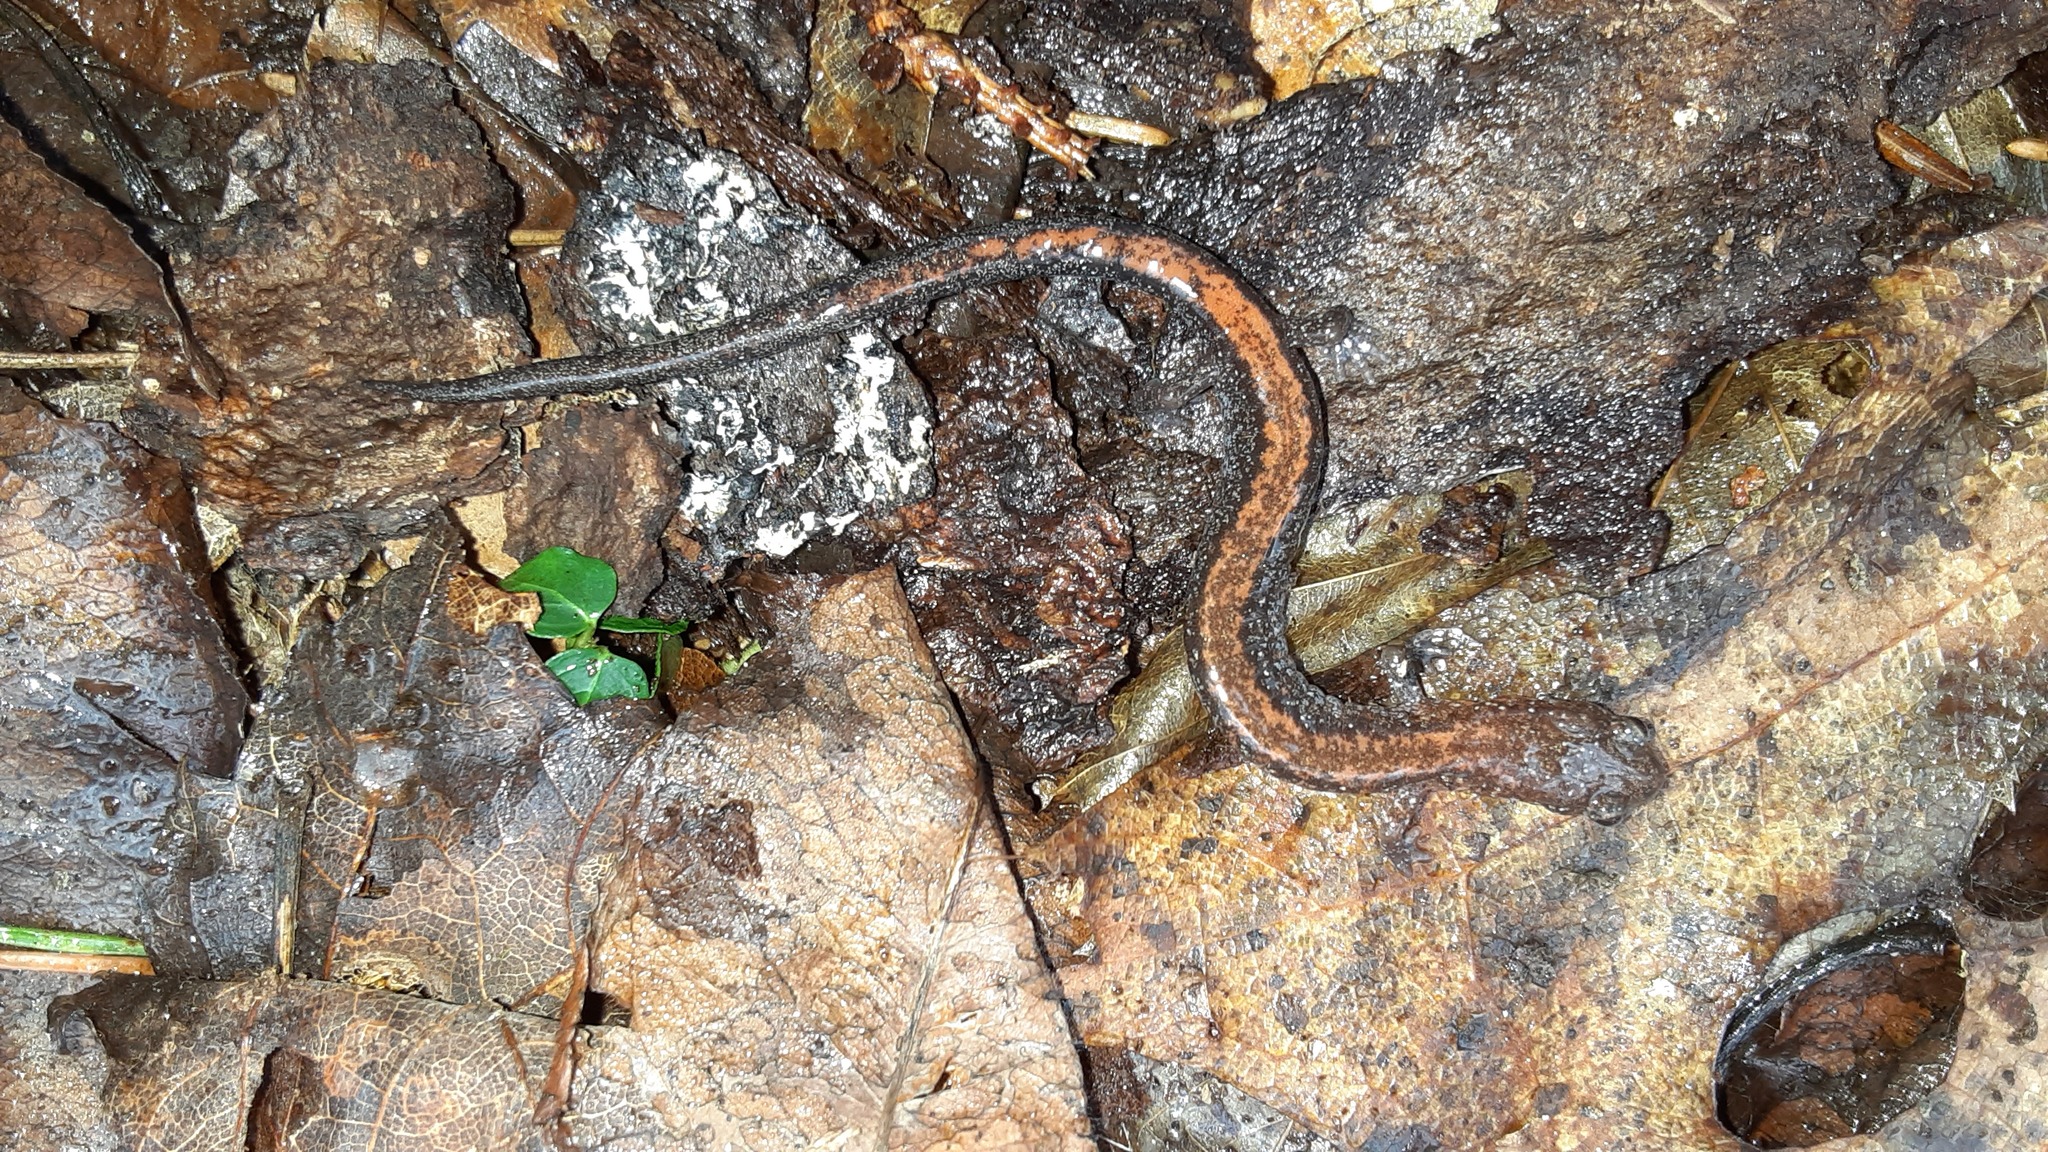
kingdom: Animalia
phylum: Chordata
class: Amphibia
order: Caudata
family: Plethodontidae
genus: Plethodon
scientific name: Plethodon cinereus
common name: Redback salamander
